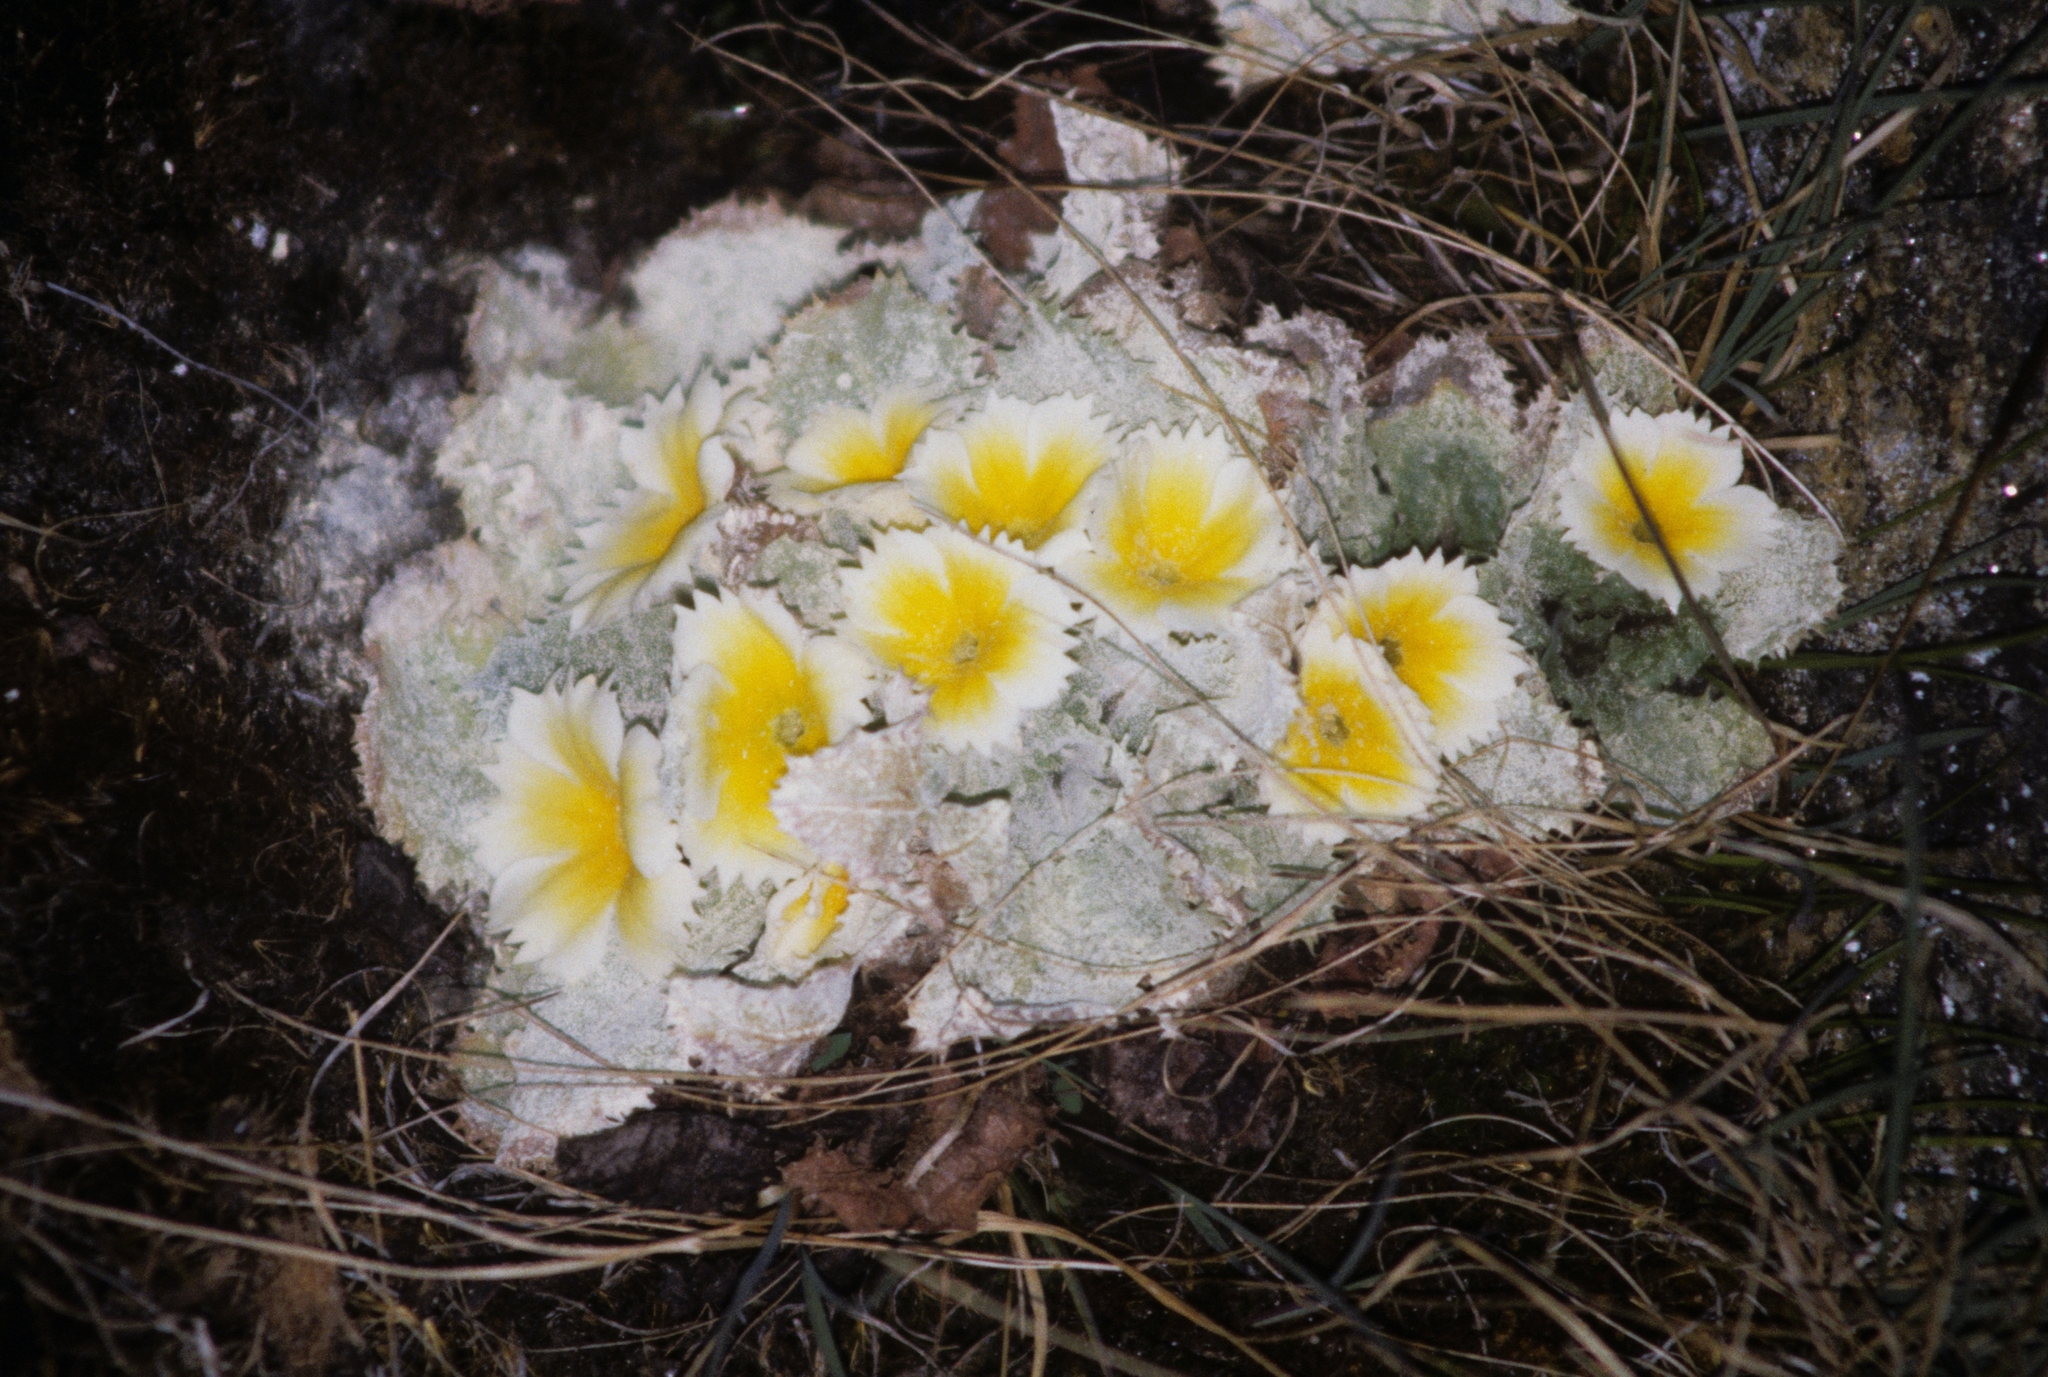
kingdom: Plantae
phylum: Tracheophyta
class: Magnoliopsida
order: Ericales
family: Primulaceae
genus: Primula
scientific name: Primula aureata
